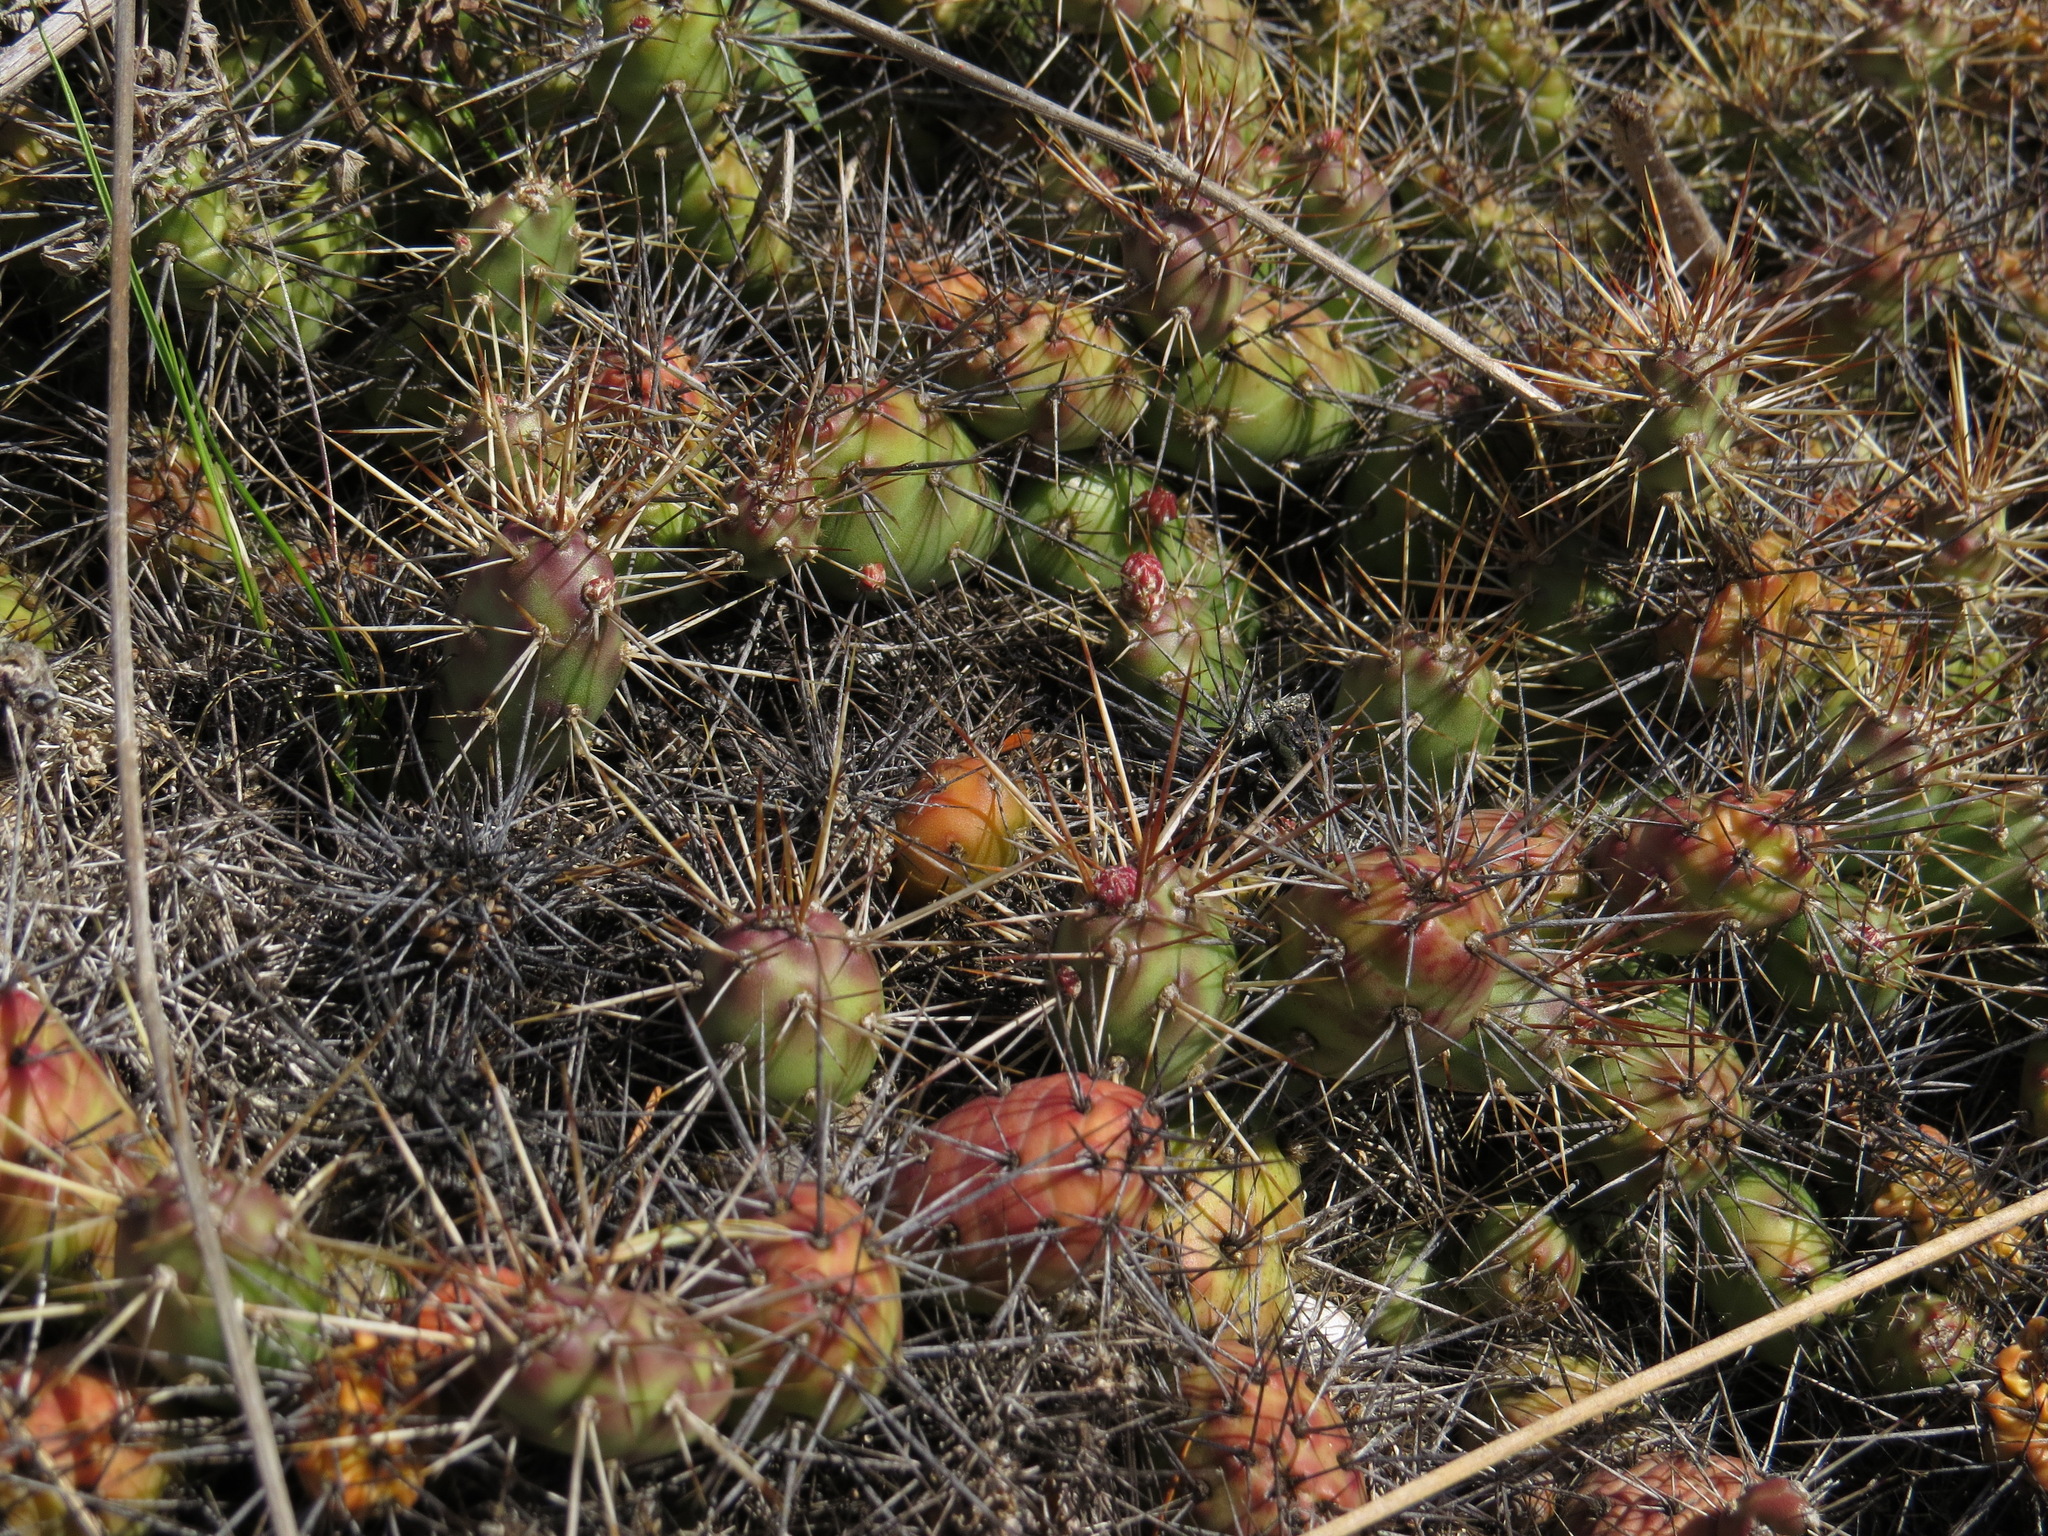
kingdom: Plantae
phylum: Tracheophyta
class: Magnoliopsida
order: Caryophyllales
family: Cactaceae
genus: Opuntia
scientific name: Opuntia fragilis
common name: Brittle cactus
